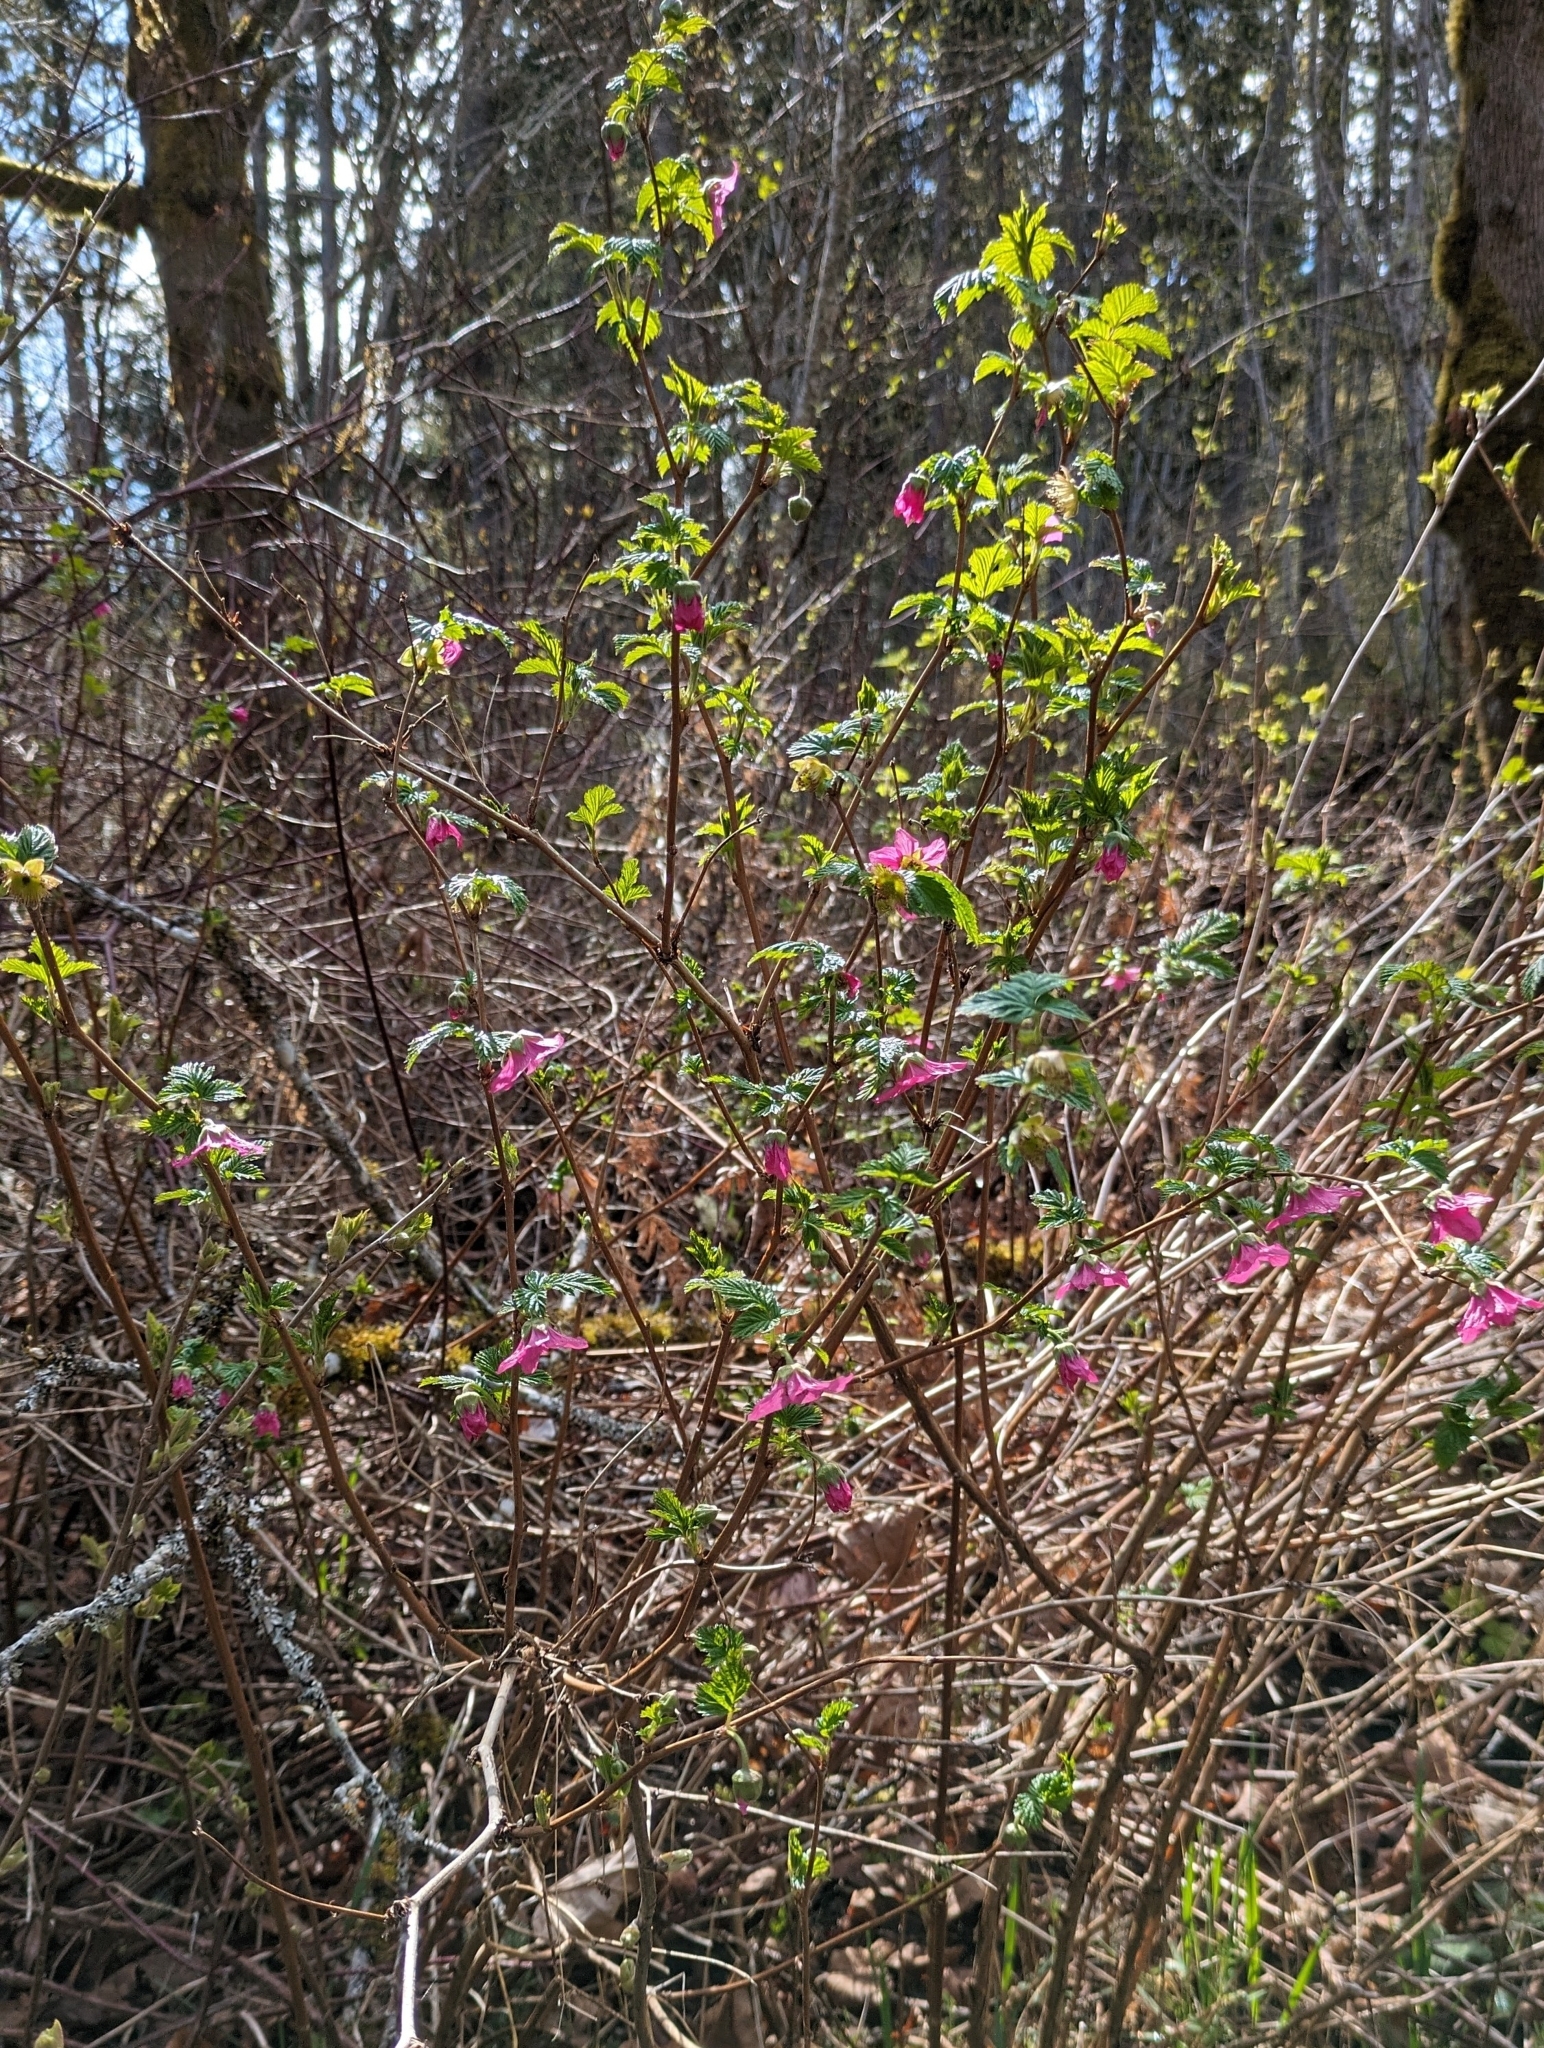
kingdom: Plantae
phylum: Tracheophyta
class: Magnoliopsida
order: Rosales
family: Rosaceae
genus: Rubus
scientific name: Rubus spectabilis
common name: Salmonberry
